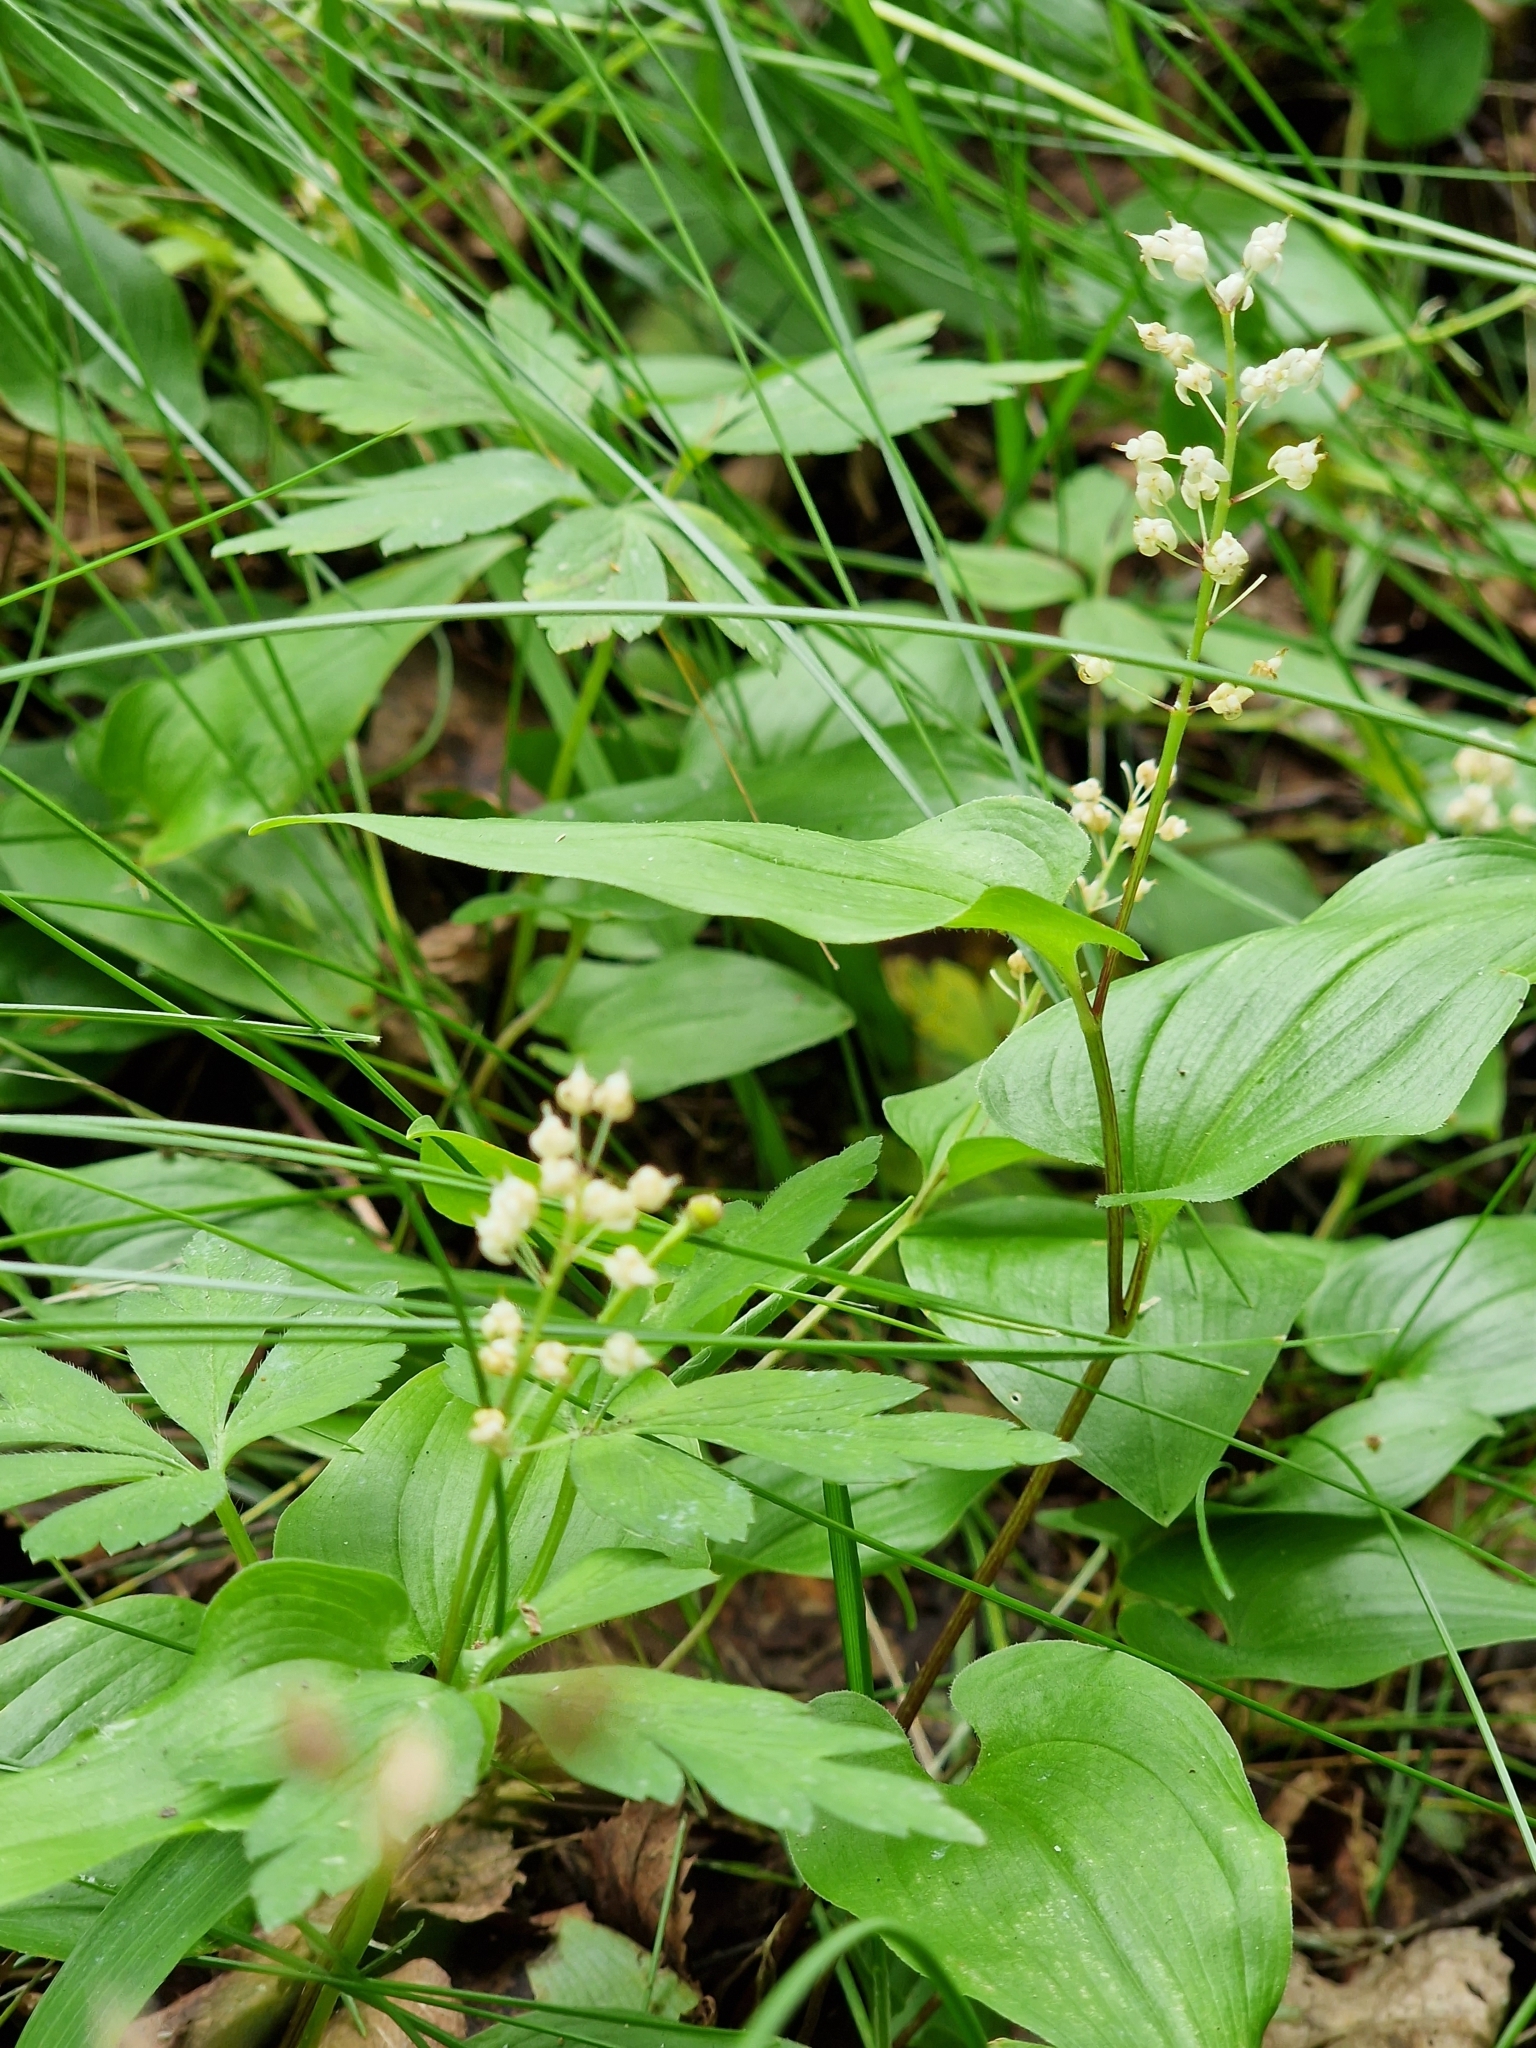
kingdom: Plantae
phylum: Tracheophyta
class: Liliopsida
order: Asparagales
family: Asparagaceae
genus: Maianthemum
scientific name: Maianthemum bifolium
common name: May lily
